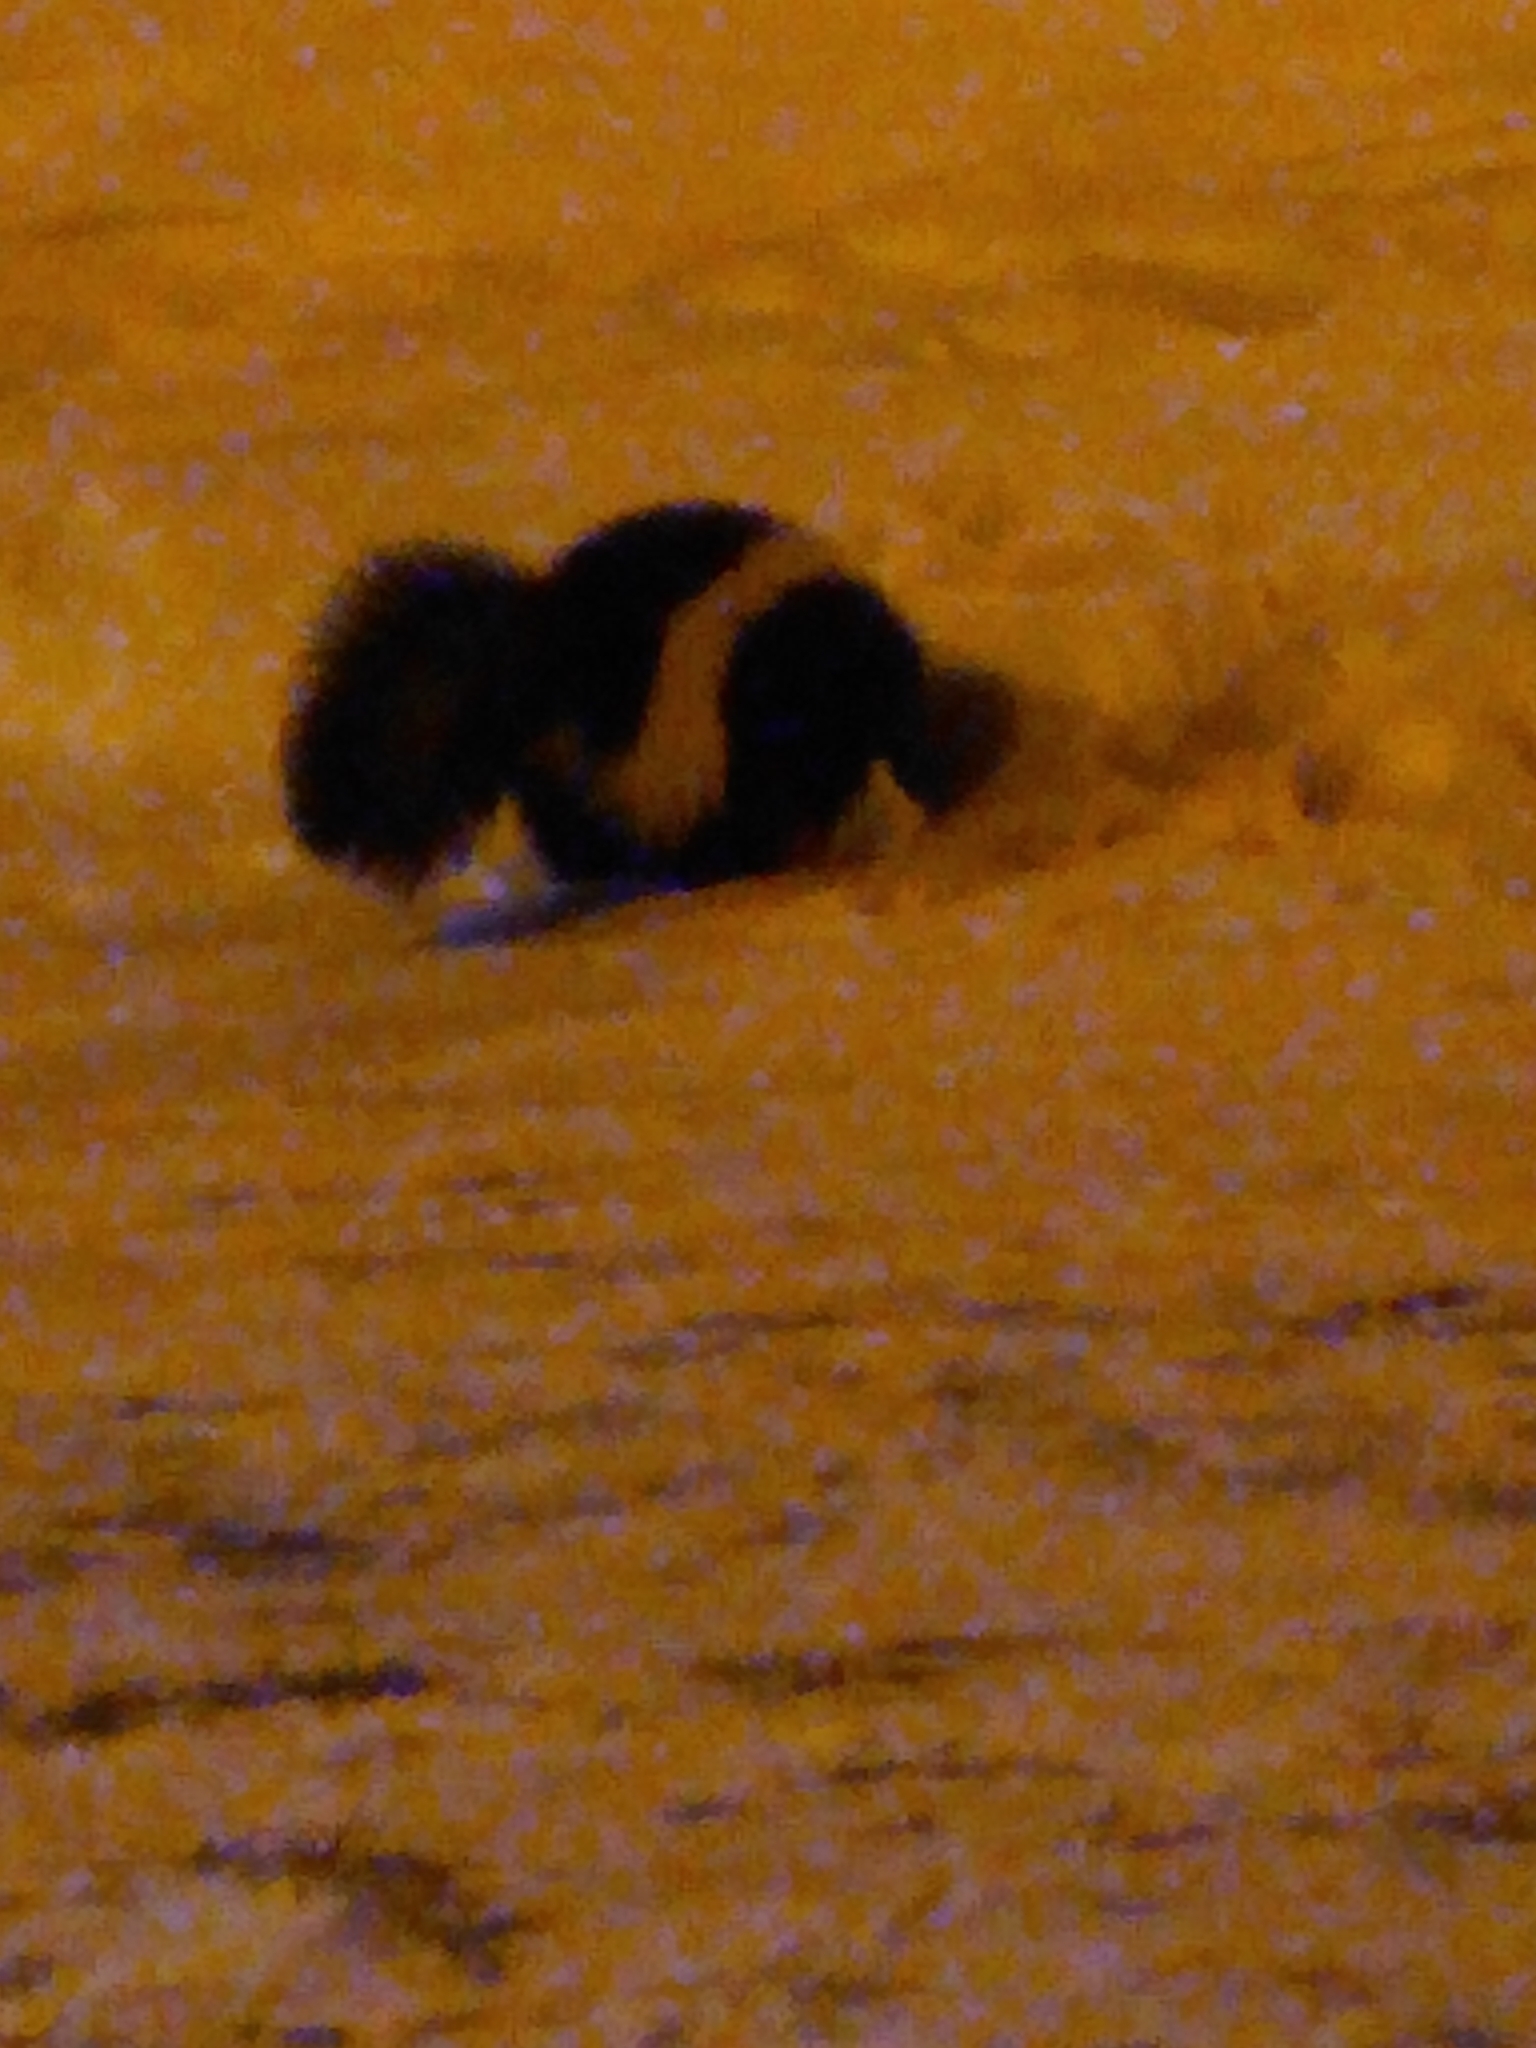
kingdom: Animalia
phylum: Chordata
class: Mammalia
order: Carnivora
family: Mephitidae
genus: Mephitis
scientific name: Mephitis mephitis
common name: Striped skunk
